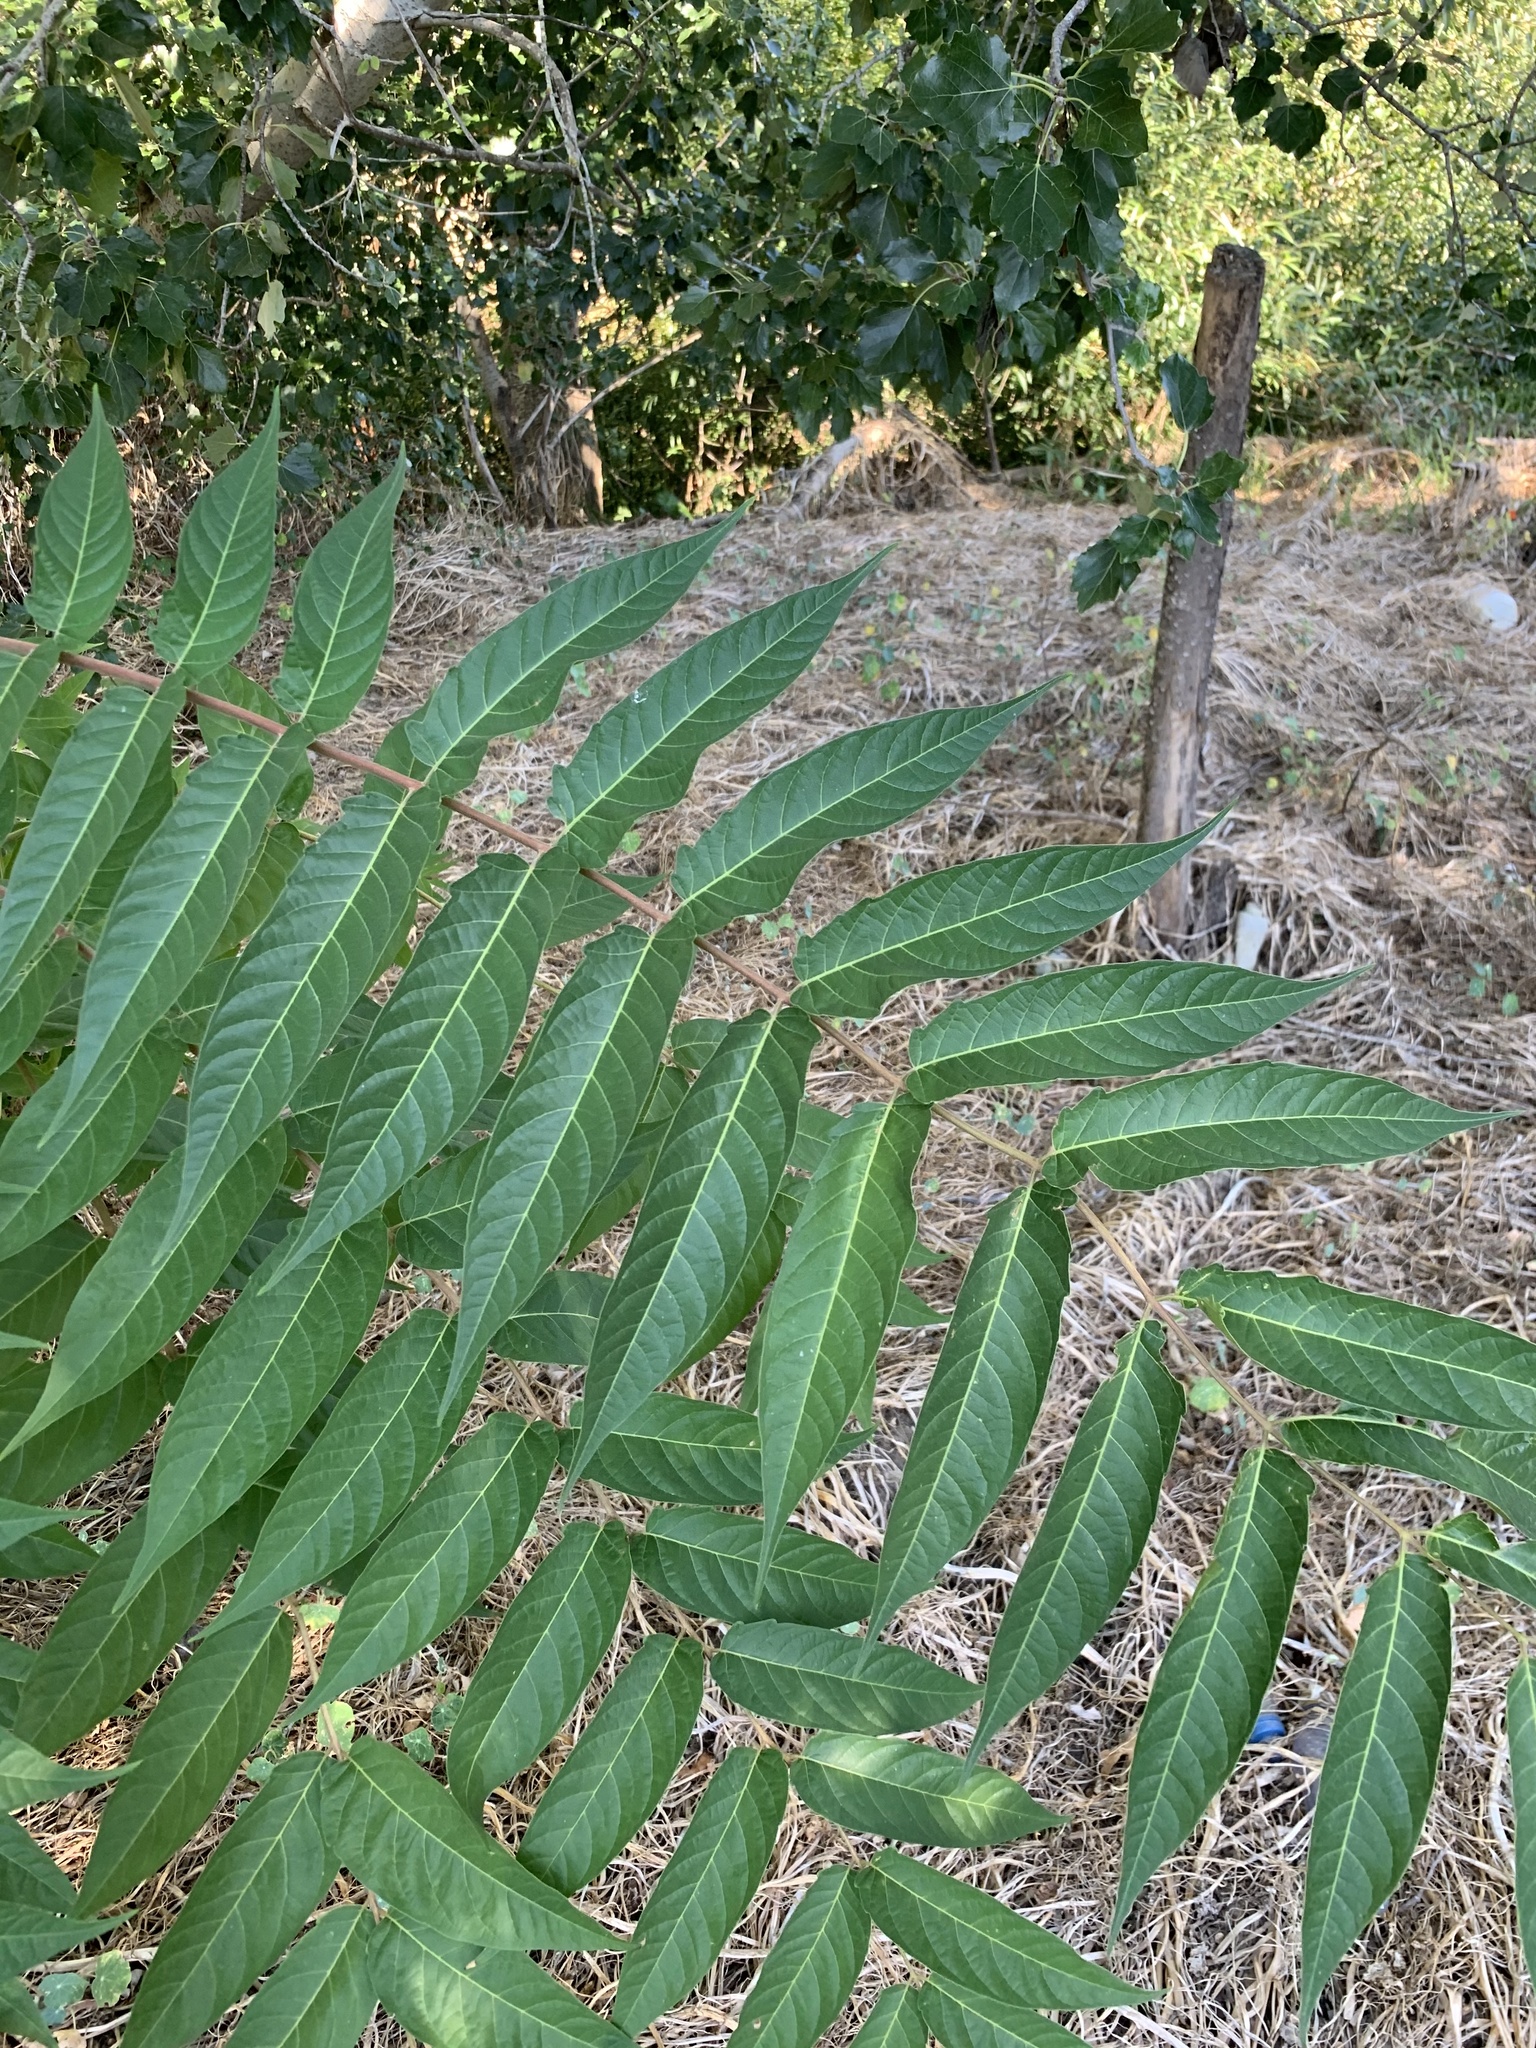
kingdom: Plantae
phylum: Tracheophyta
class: Magnoliopsida
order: Sapindales
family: Simaroubaceae
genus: Ailanthus
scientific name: Ailanthus altissima
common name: Tree-of-heaven
